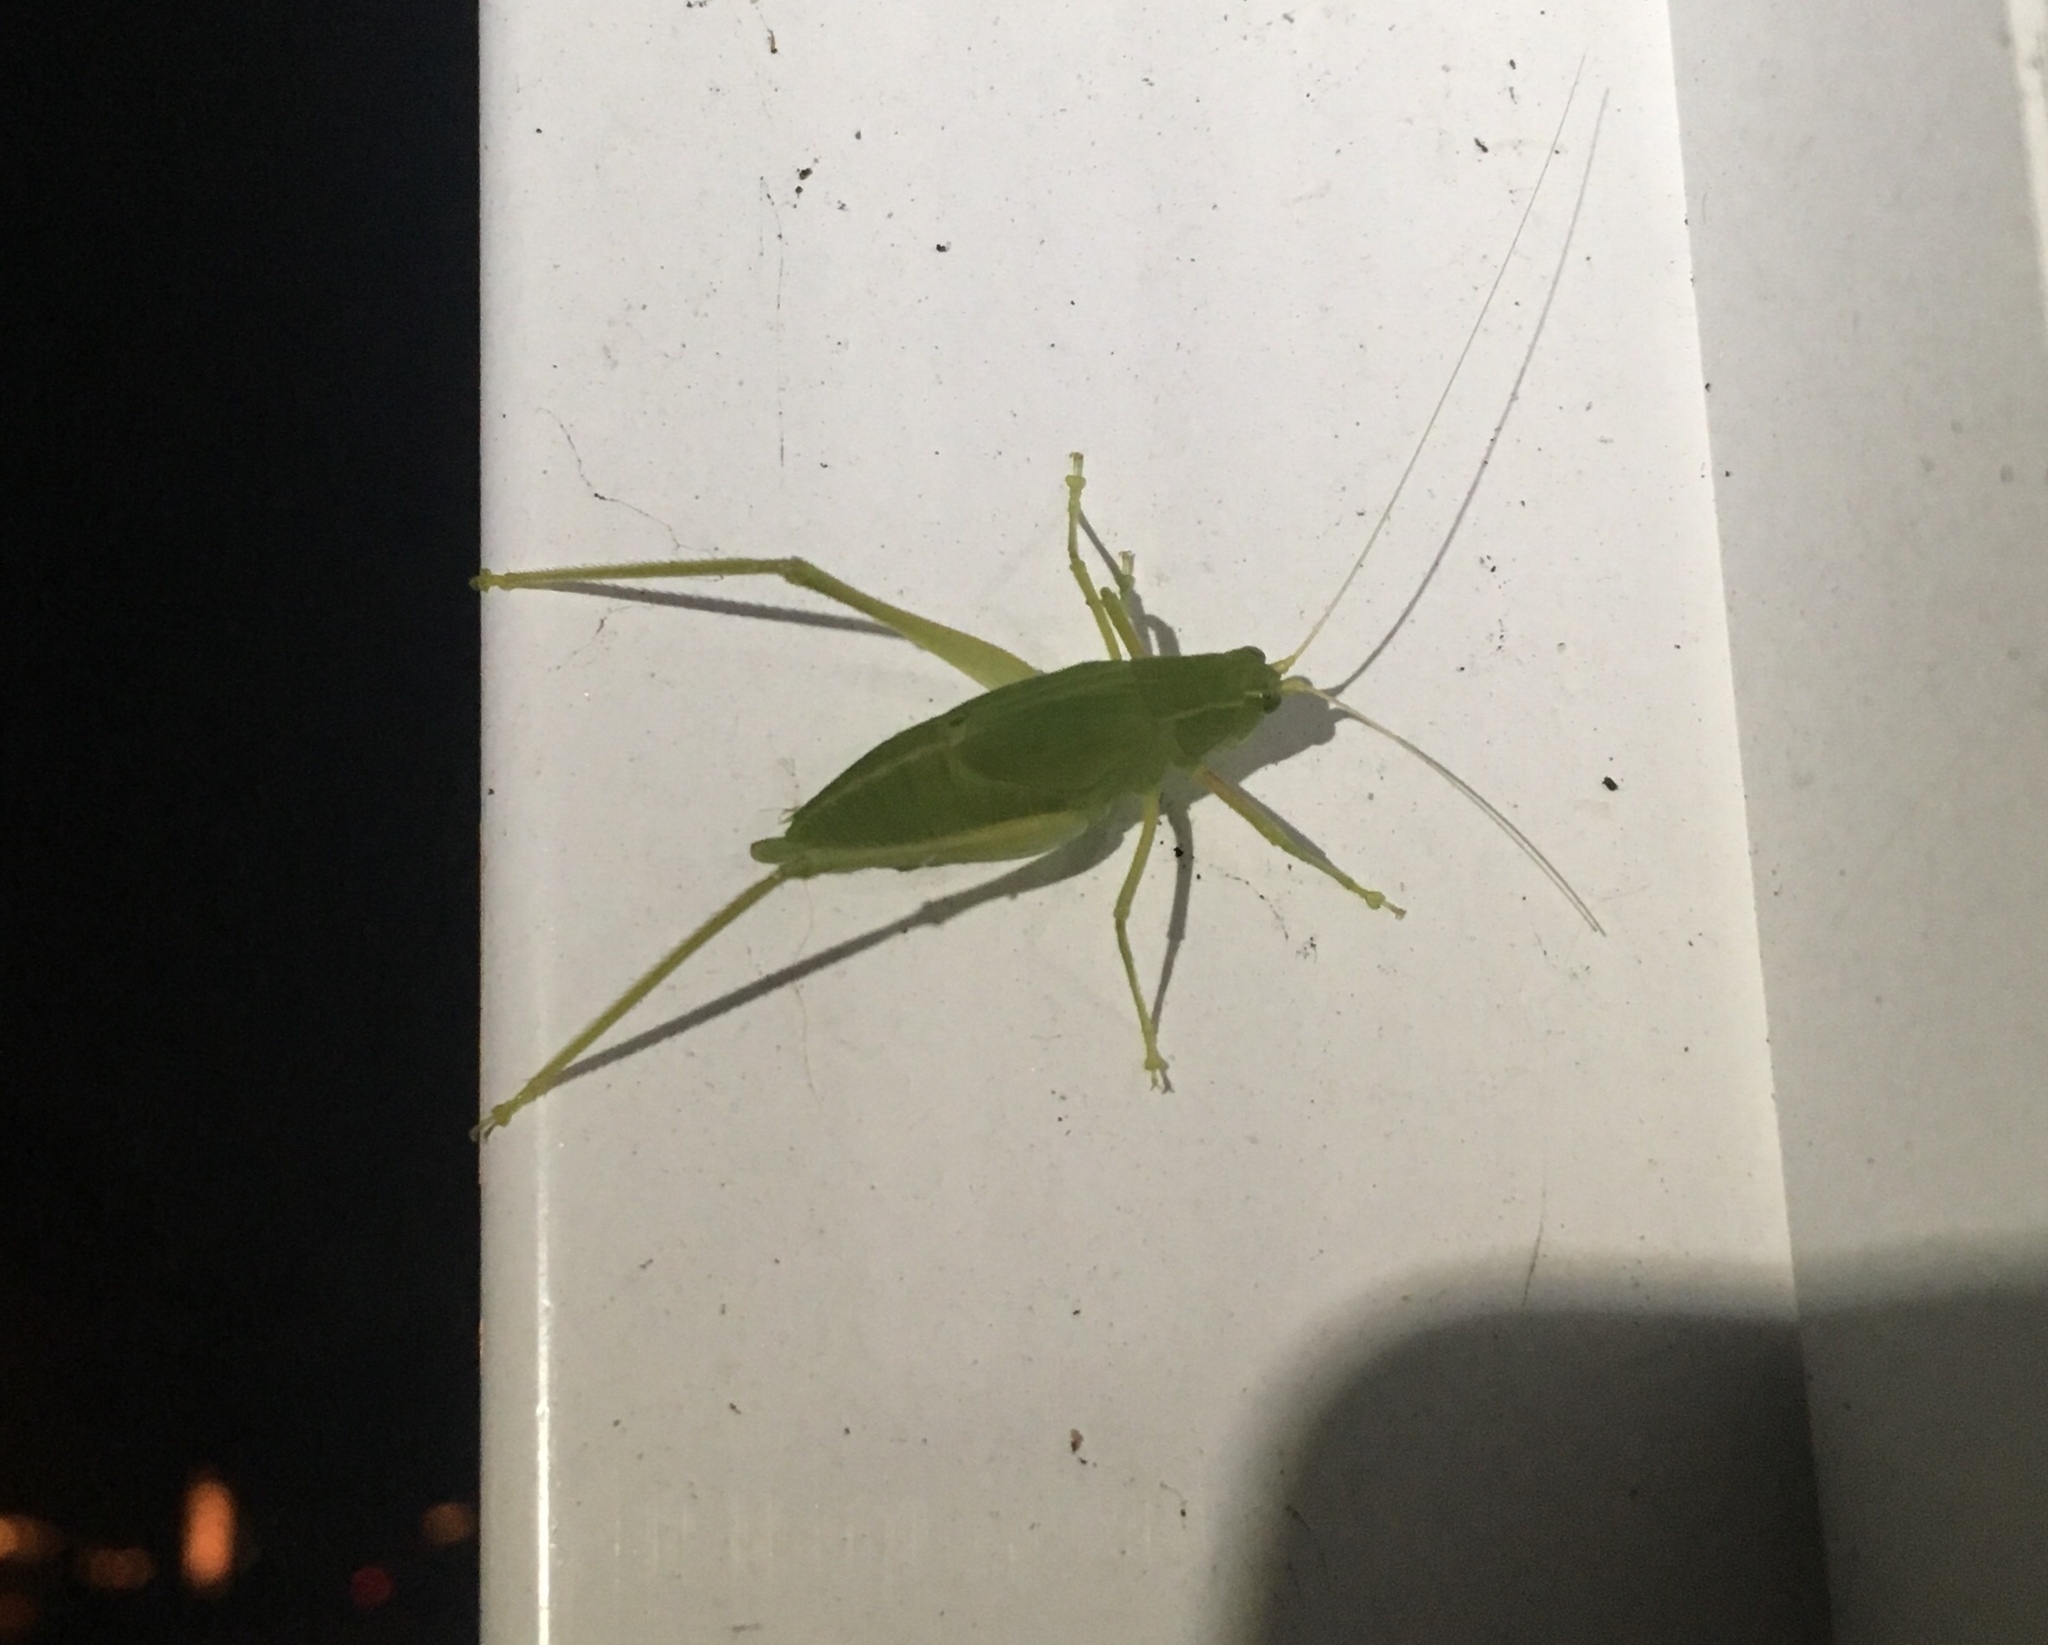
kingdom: Animalia
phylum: Arthropoda
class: Insecta
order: Orthoptera
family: Tettigoniidae
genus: Turpilia
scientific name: Turpilia rostrata
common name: Narrow-beaked katydid
